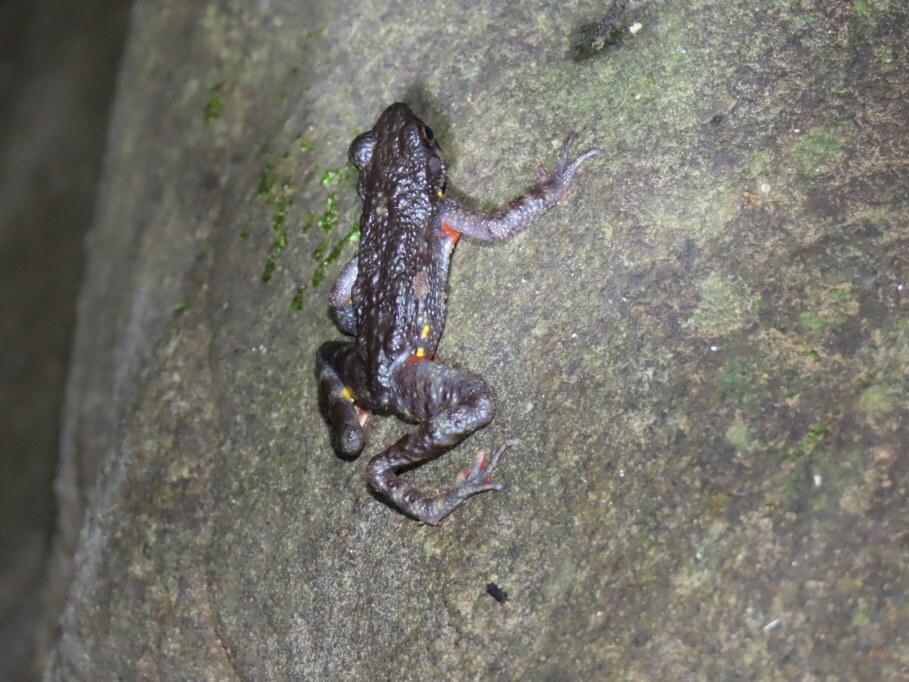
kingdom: Animalia
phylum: Chordata
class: Amphibia
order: Anura
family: Bufonidae
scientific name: Bufonidae
